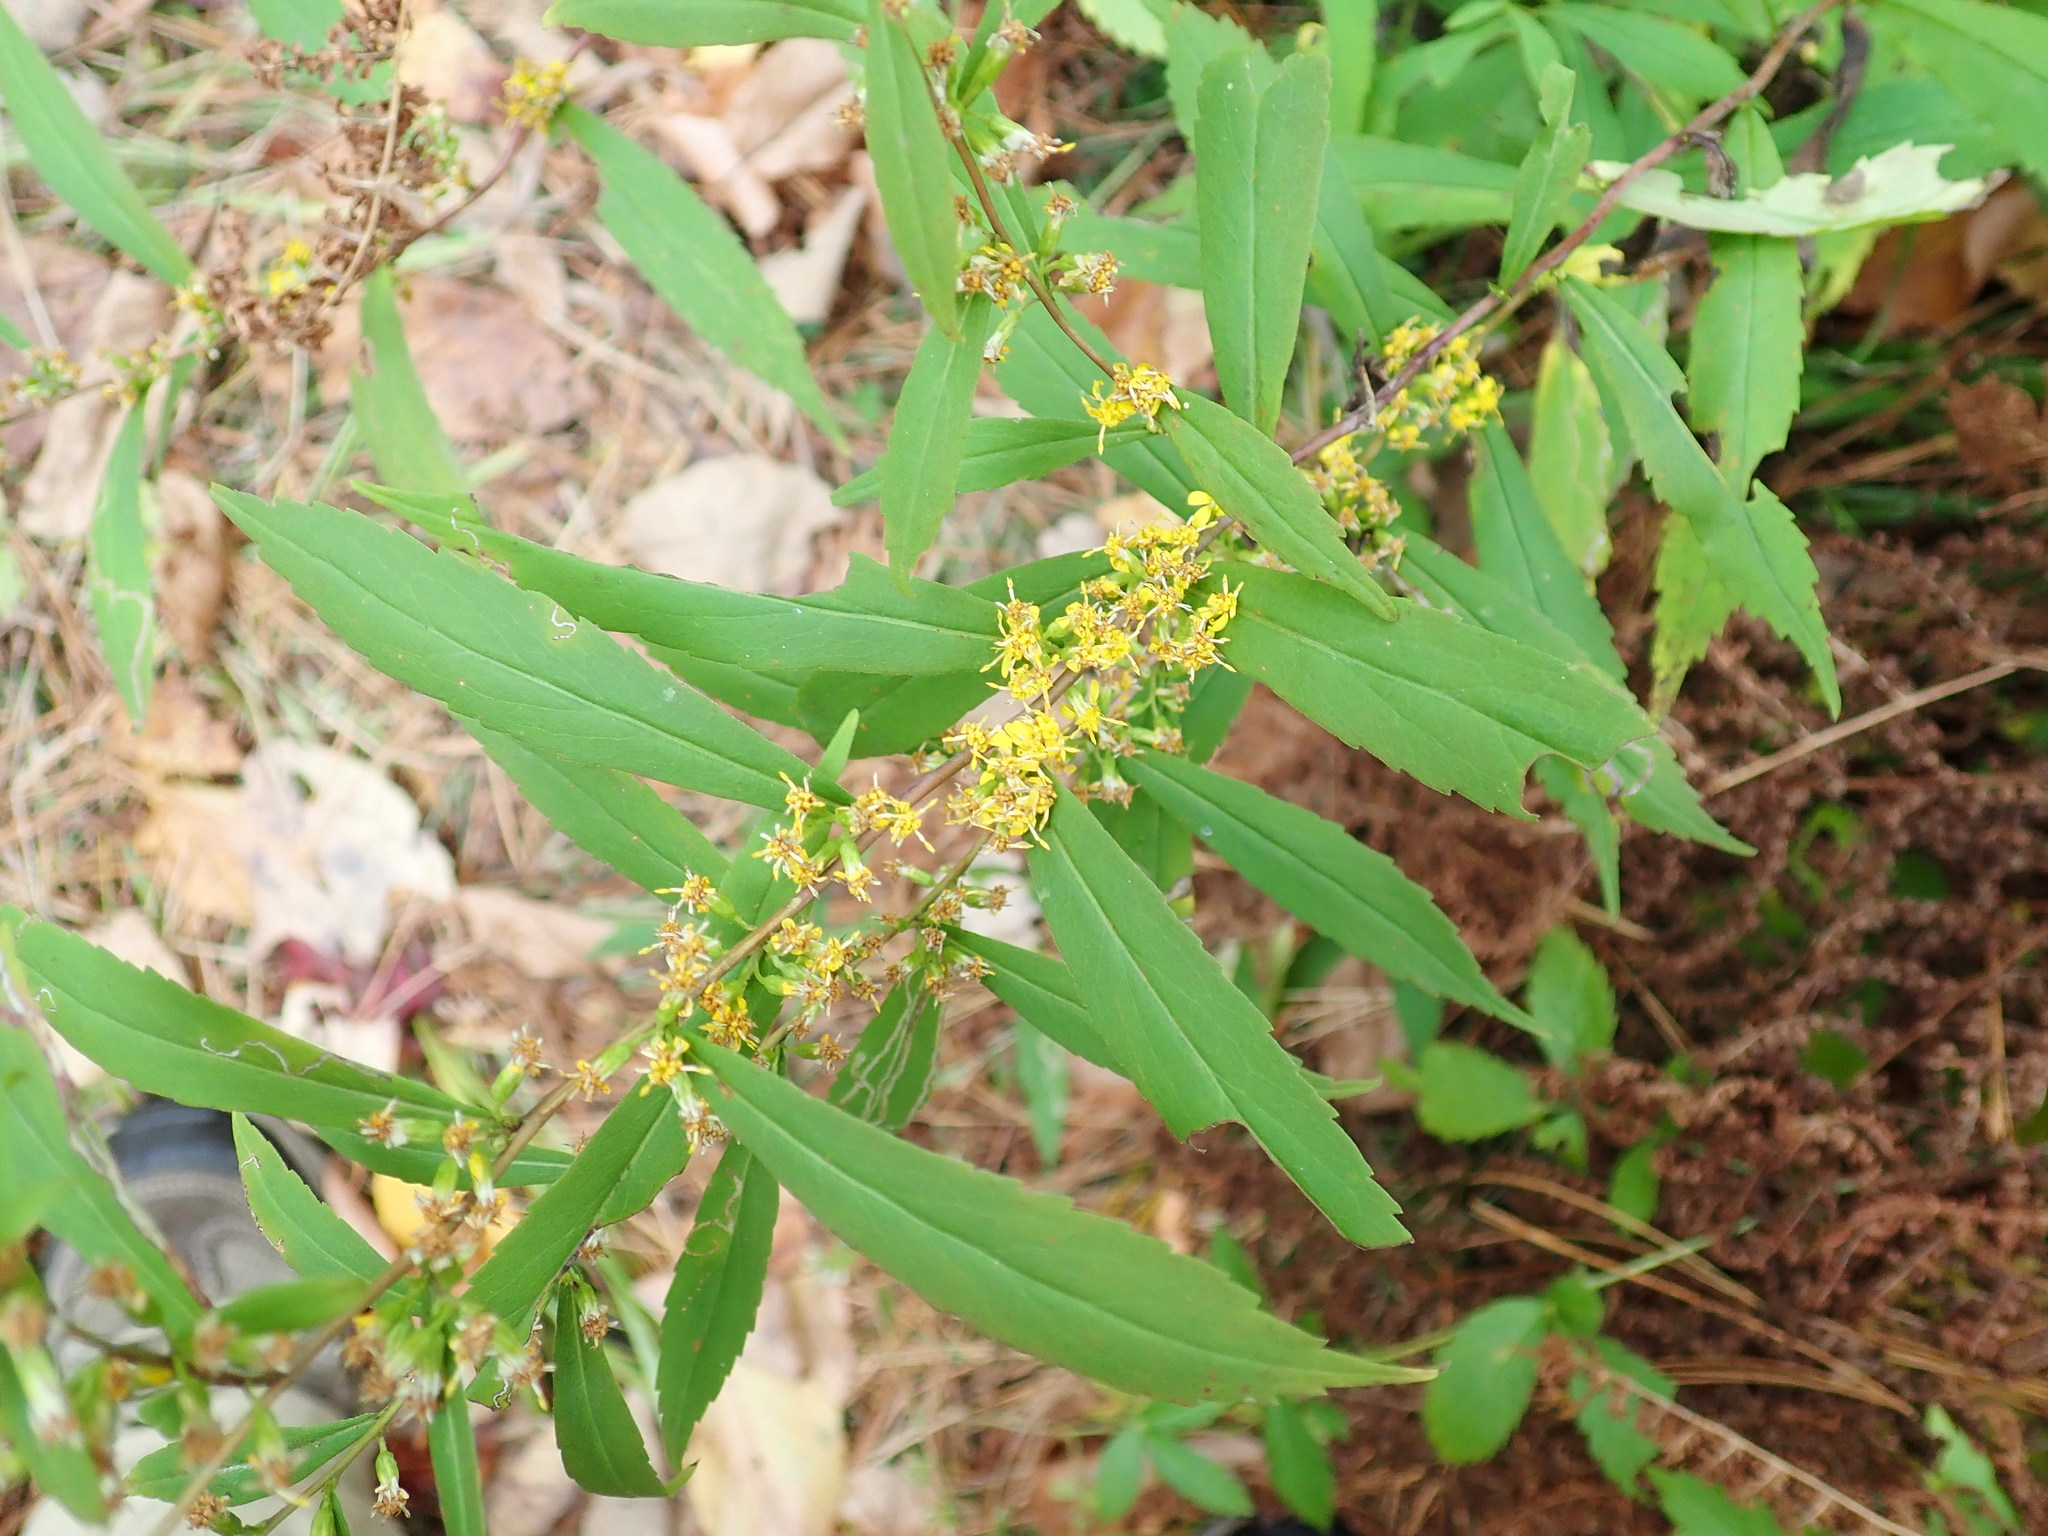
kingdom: Plantae
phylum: Tracheophyta
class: Magnoliopsida
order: Asterales
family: Asteraceae
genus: Solidago
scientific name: Solidago caesia
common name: Woodland goldenrod
